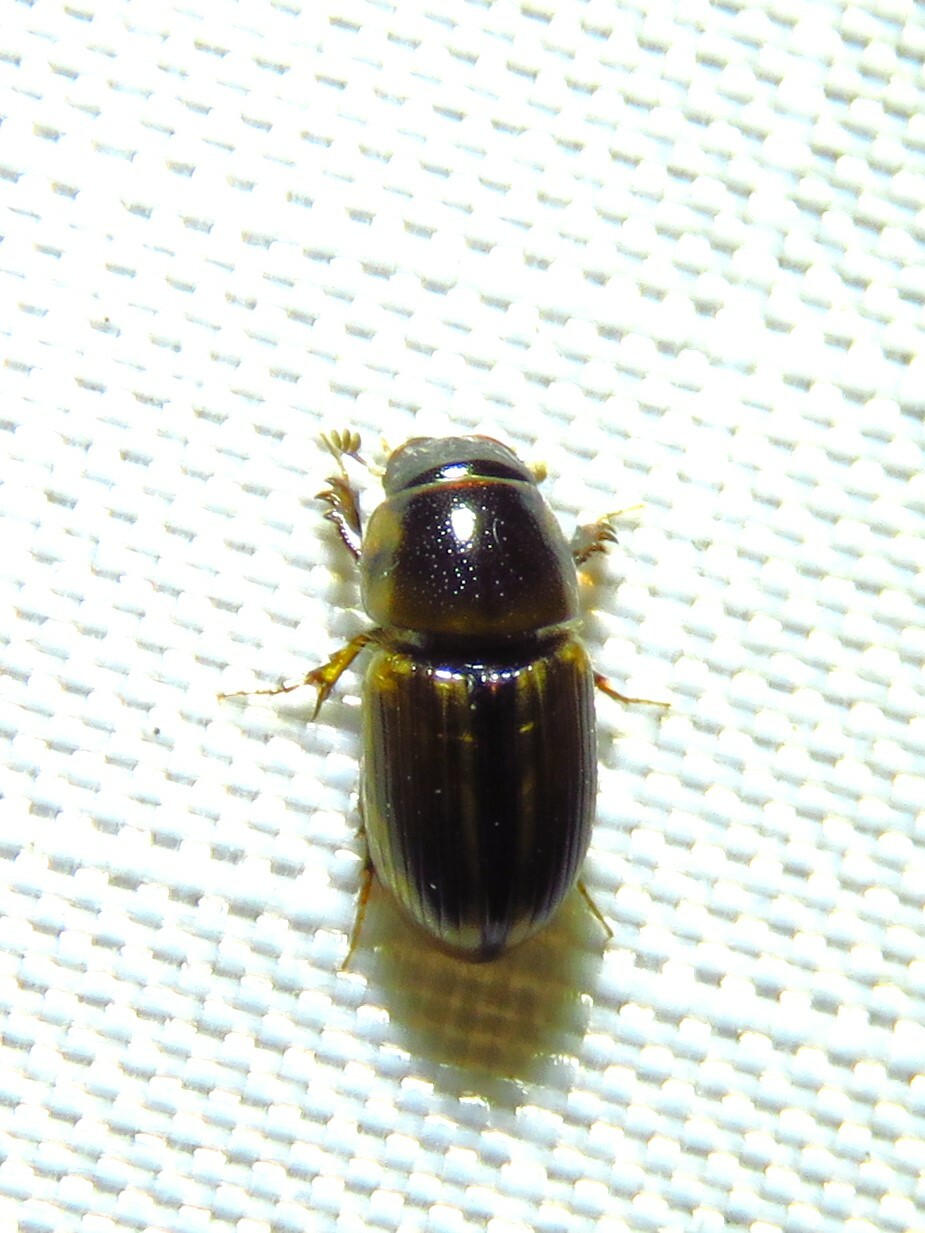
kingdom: Animalia
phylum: Arthropoda
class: Insecta
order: Coleoptera
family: Scarabaeidae
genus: Labarrus
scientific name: Labarrus lividus
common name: Scarab beetle
